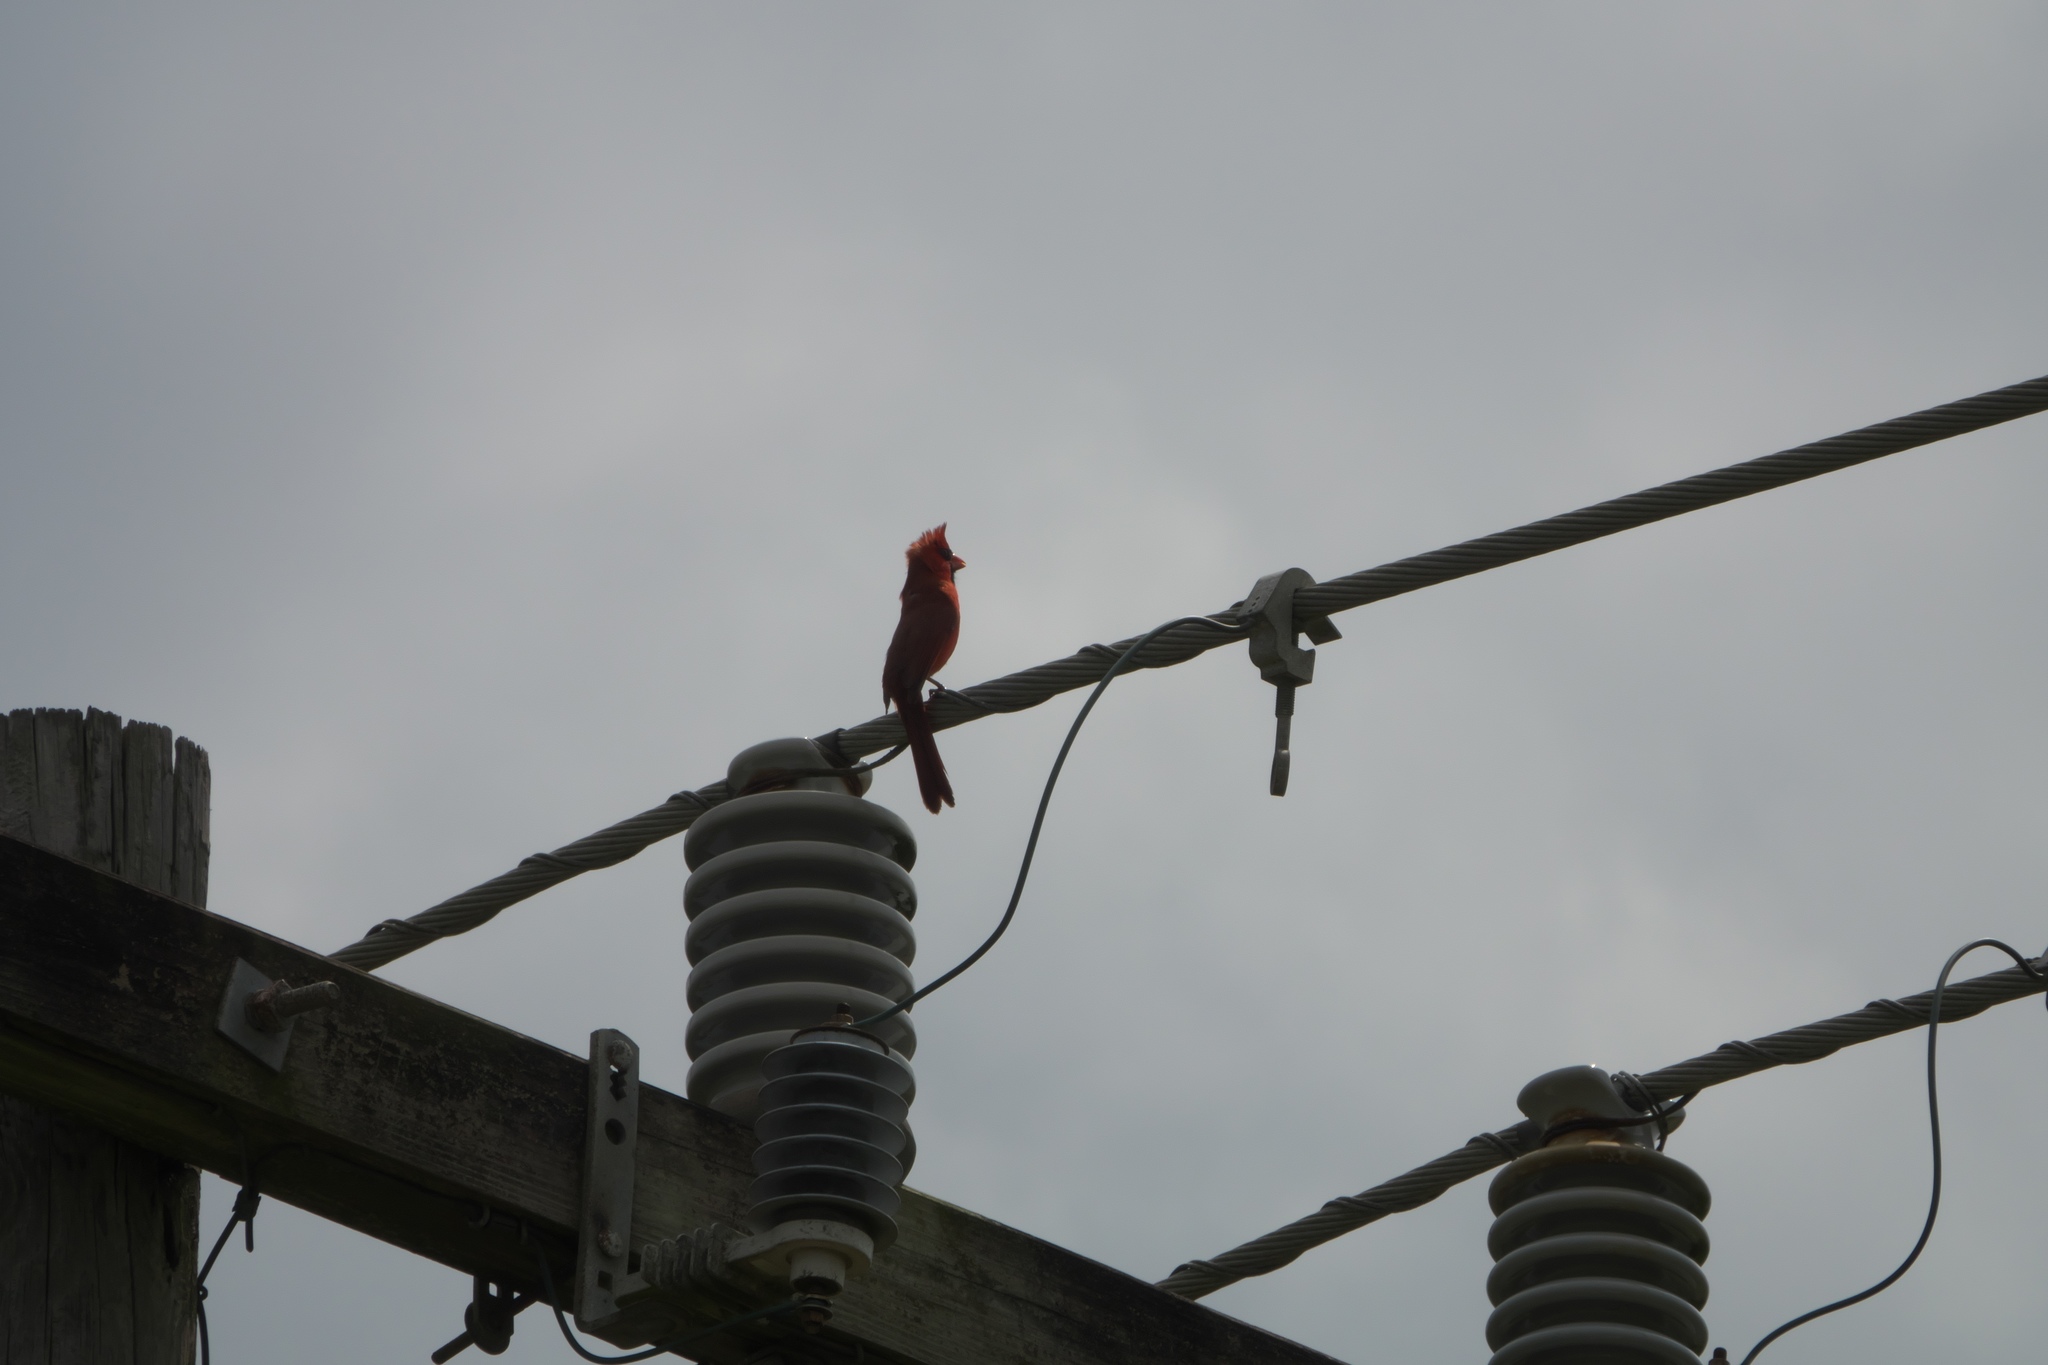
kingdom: Animalia
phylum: Chordata
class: Aves
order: Passeriformes
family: Cardinalidae
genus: Cardinalis
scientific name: Cardinalis cardinalis
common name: Northern cardinal
